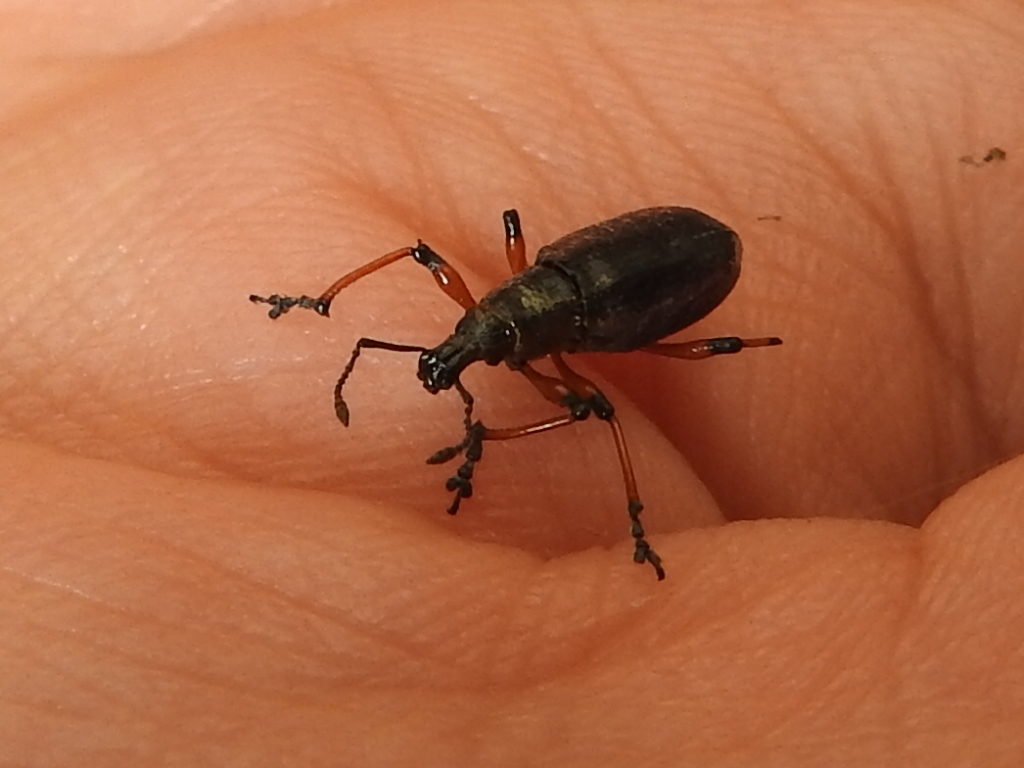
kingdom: Animalia
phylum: Arthropoda
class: Insecta
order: Coleoptera
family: Curculionidae
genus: Chauliopleurus
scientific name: Chauliopleurus rufovittatus
